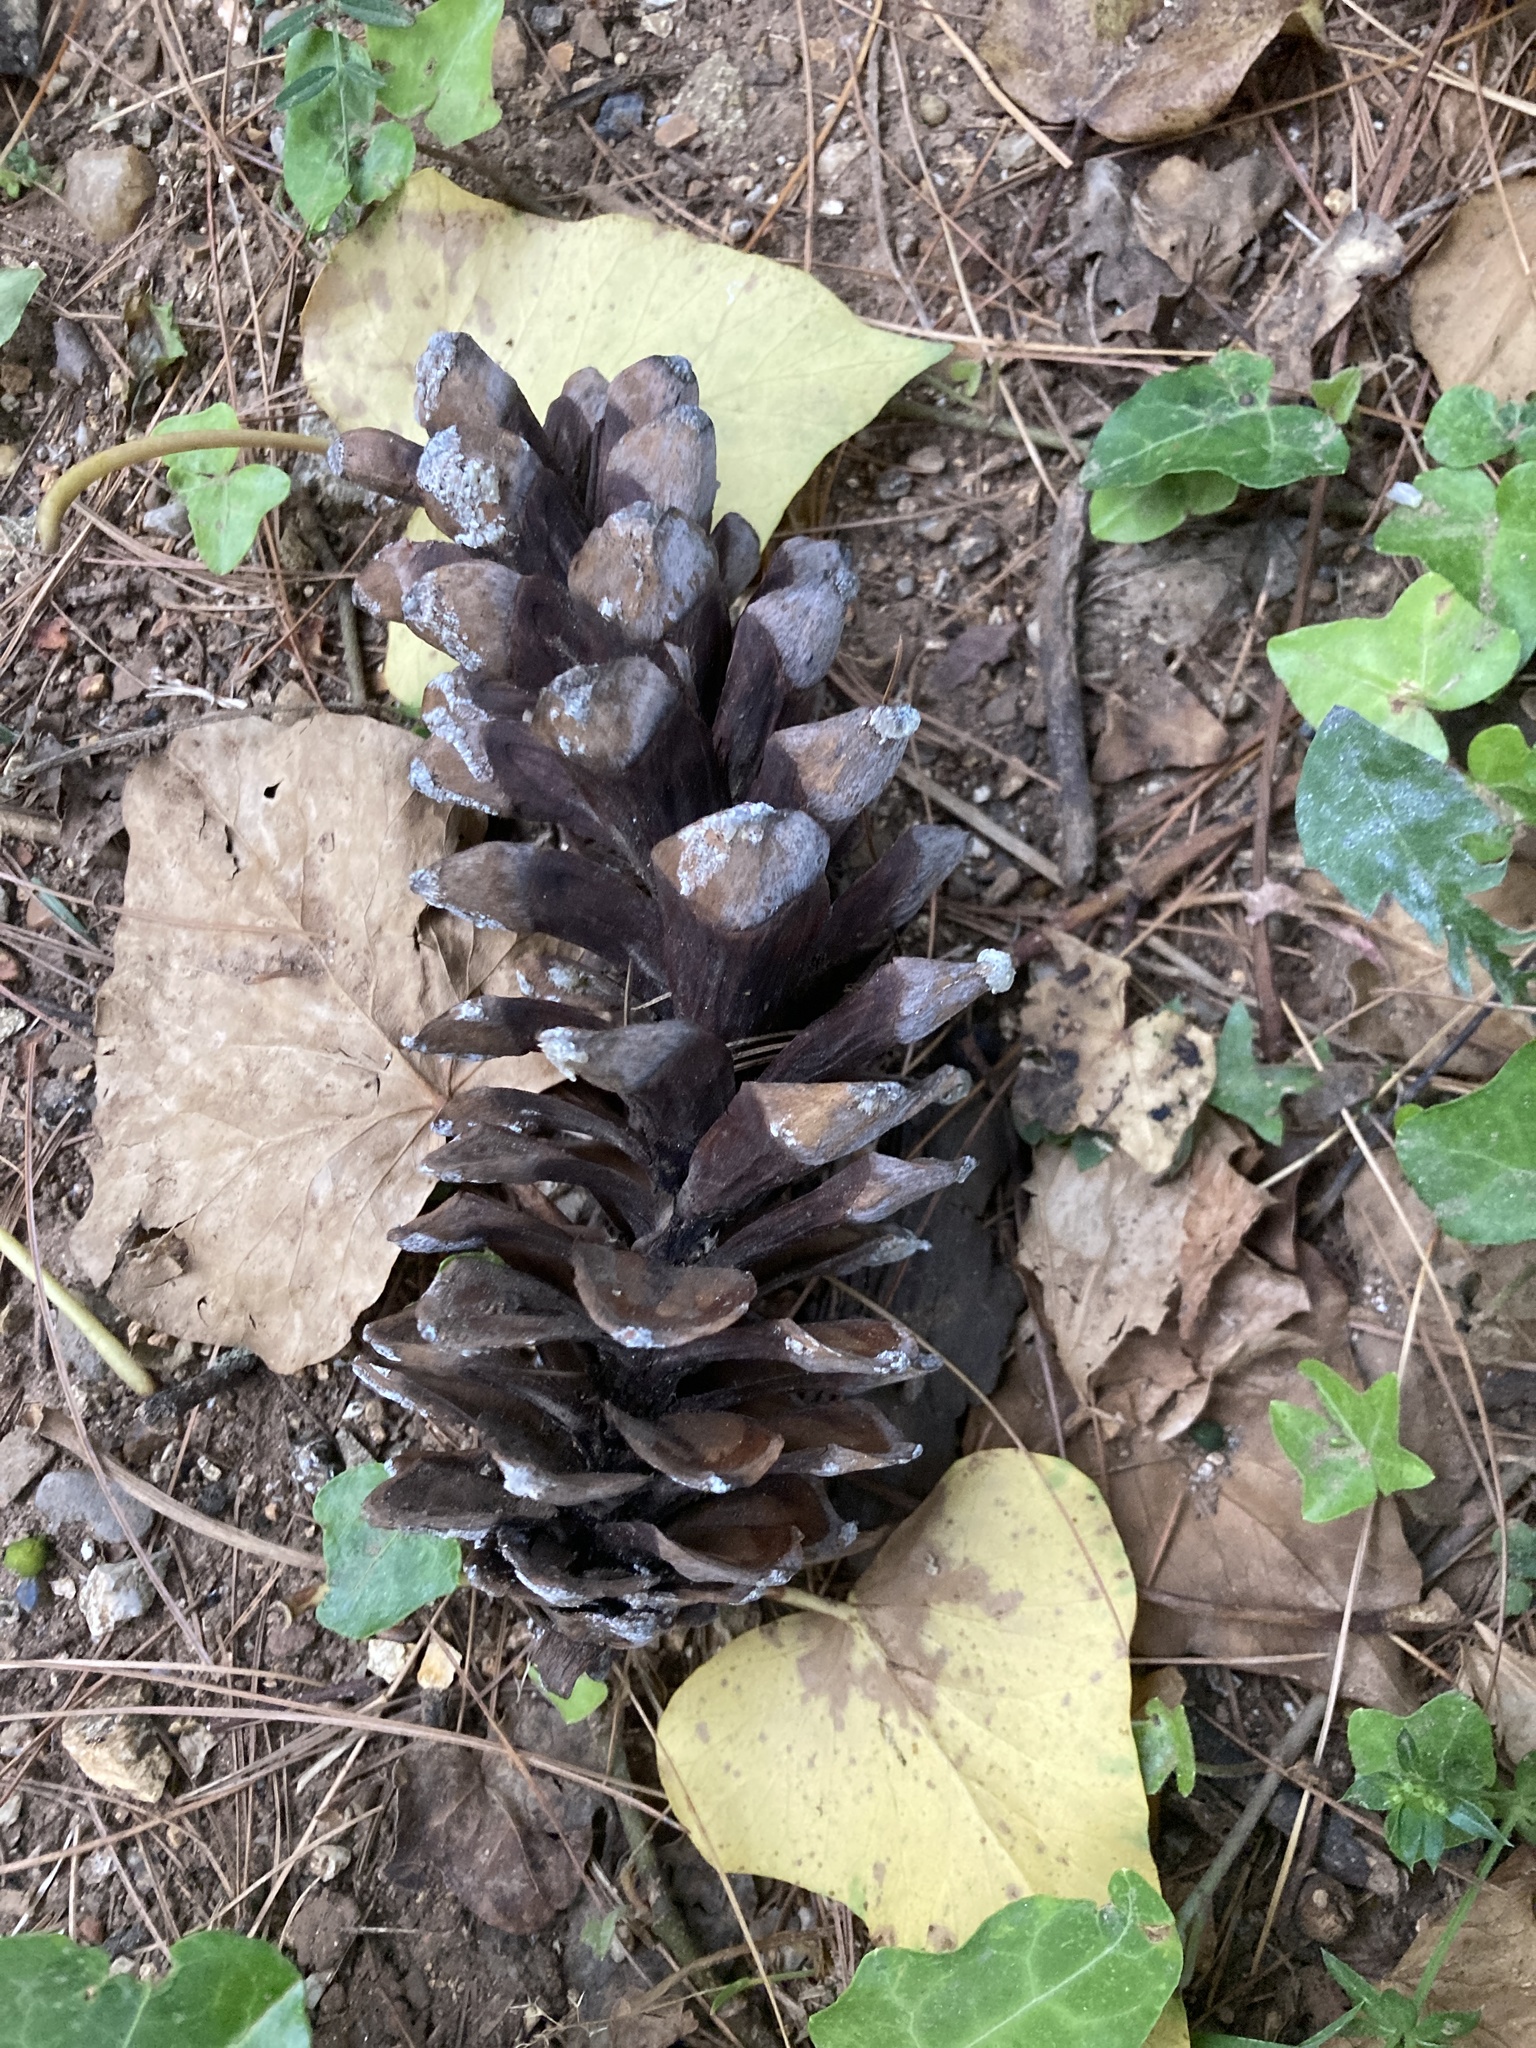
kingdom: Plantae
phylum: Tracheophyta
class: Pinopsida
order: Pinales
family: Pinaceae
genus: Pinus
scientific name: Pinus strobus
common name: Weymouth pine
